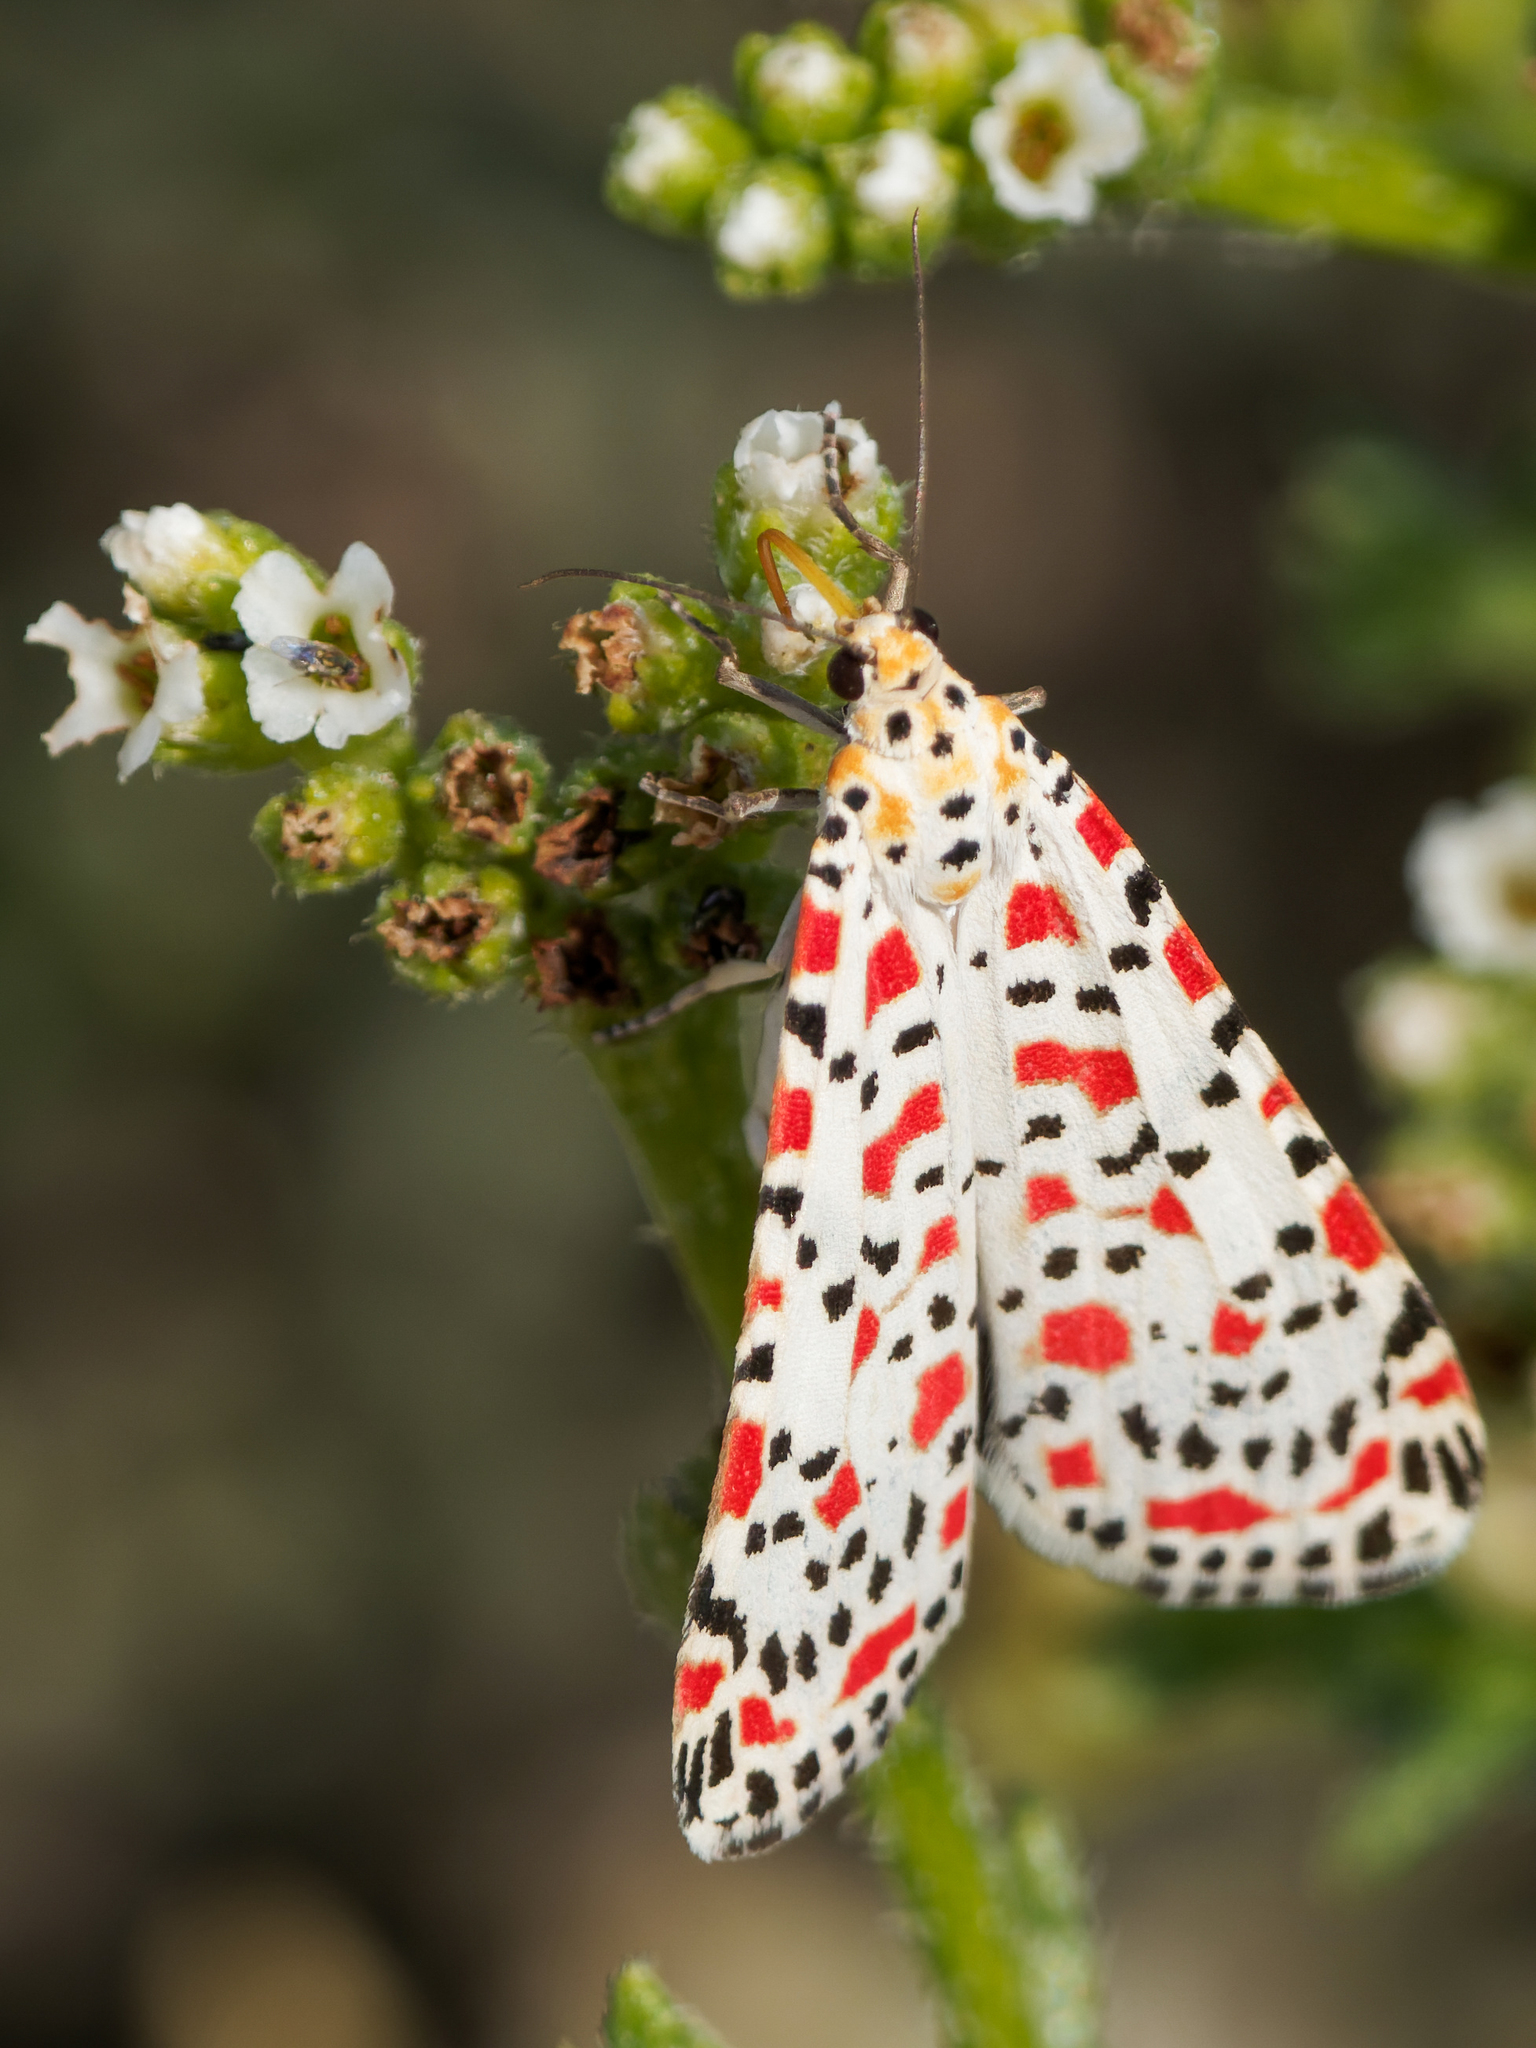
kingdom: Animalia
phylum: Arthropoda
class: Insecta
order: Lepidoptera
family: Erebidae
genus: Utetheisa
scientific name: Utetheisa pulchella
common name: Crimson speckled
